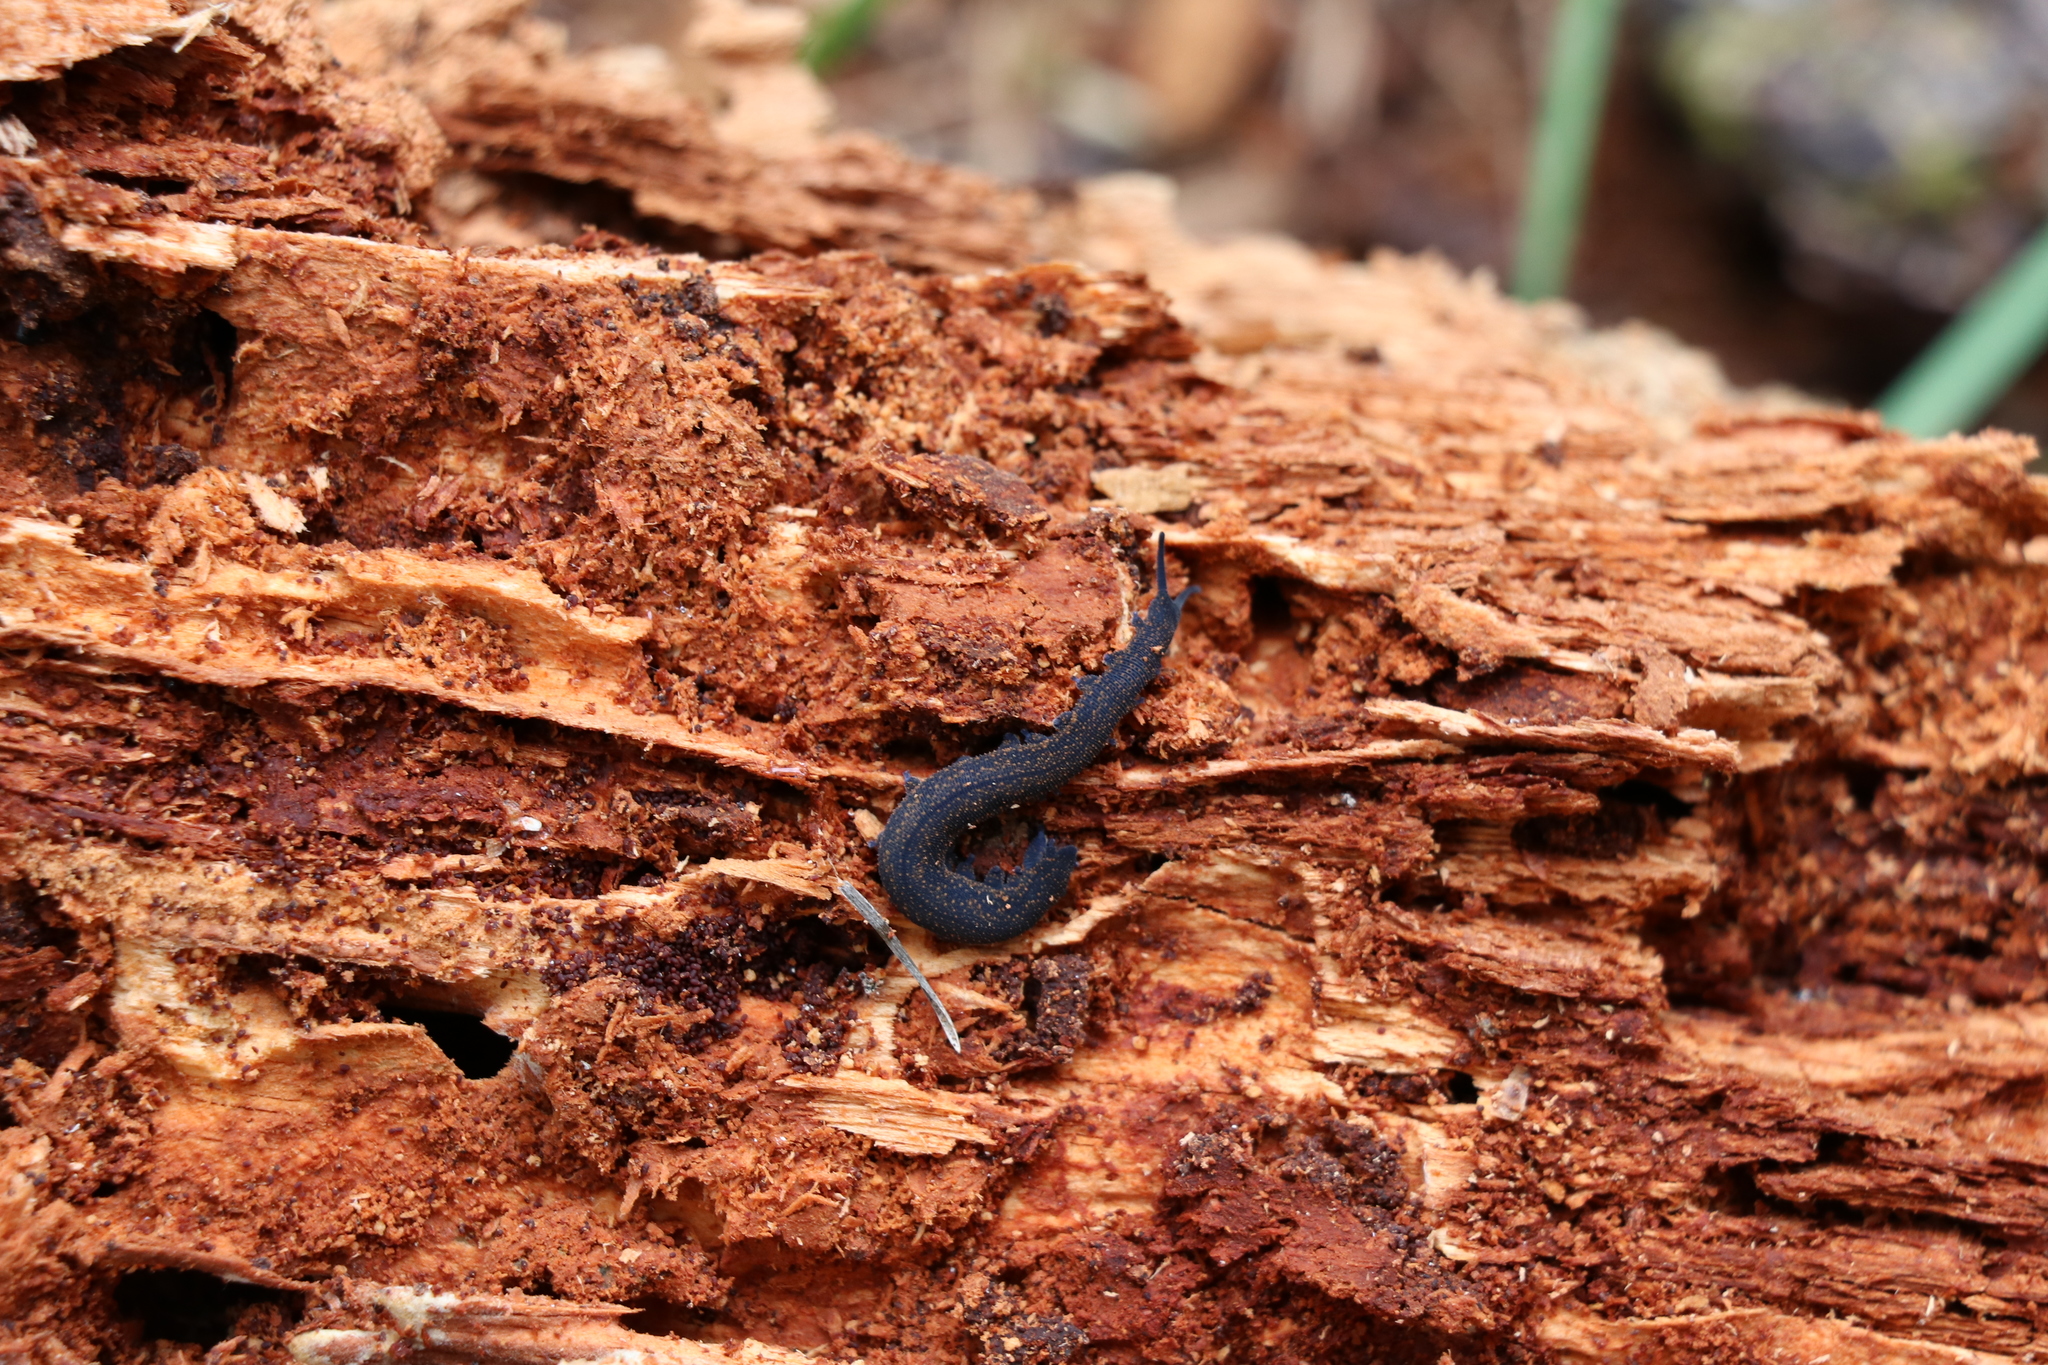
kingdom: Animalia
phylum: Onychophora
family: Peripatopsidae
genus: Peripatoides
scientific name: Peripatoides novaezealandiae
